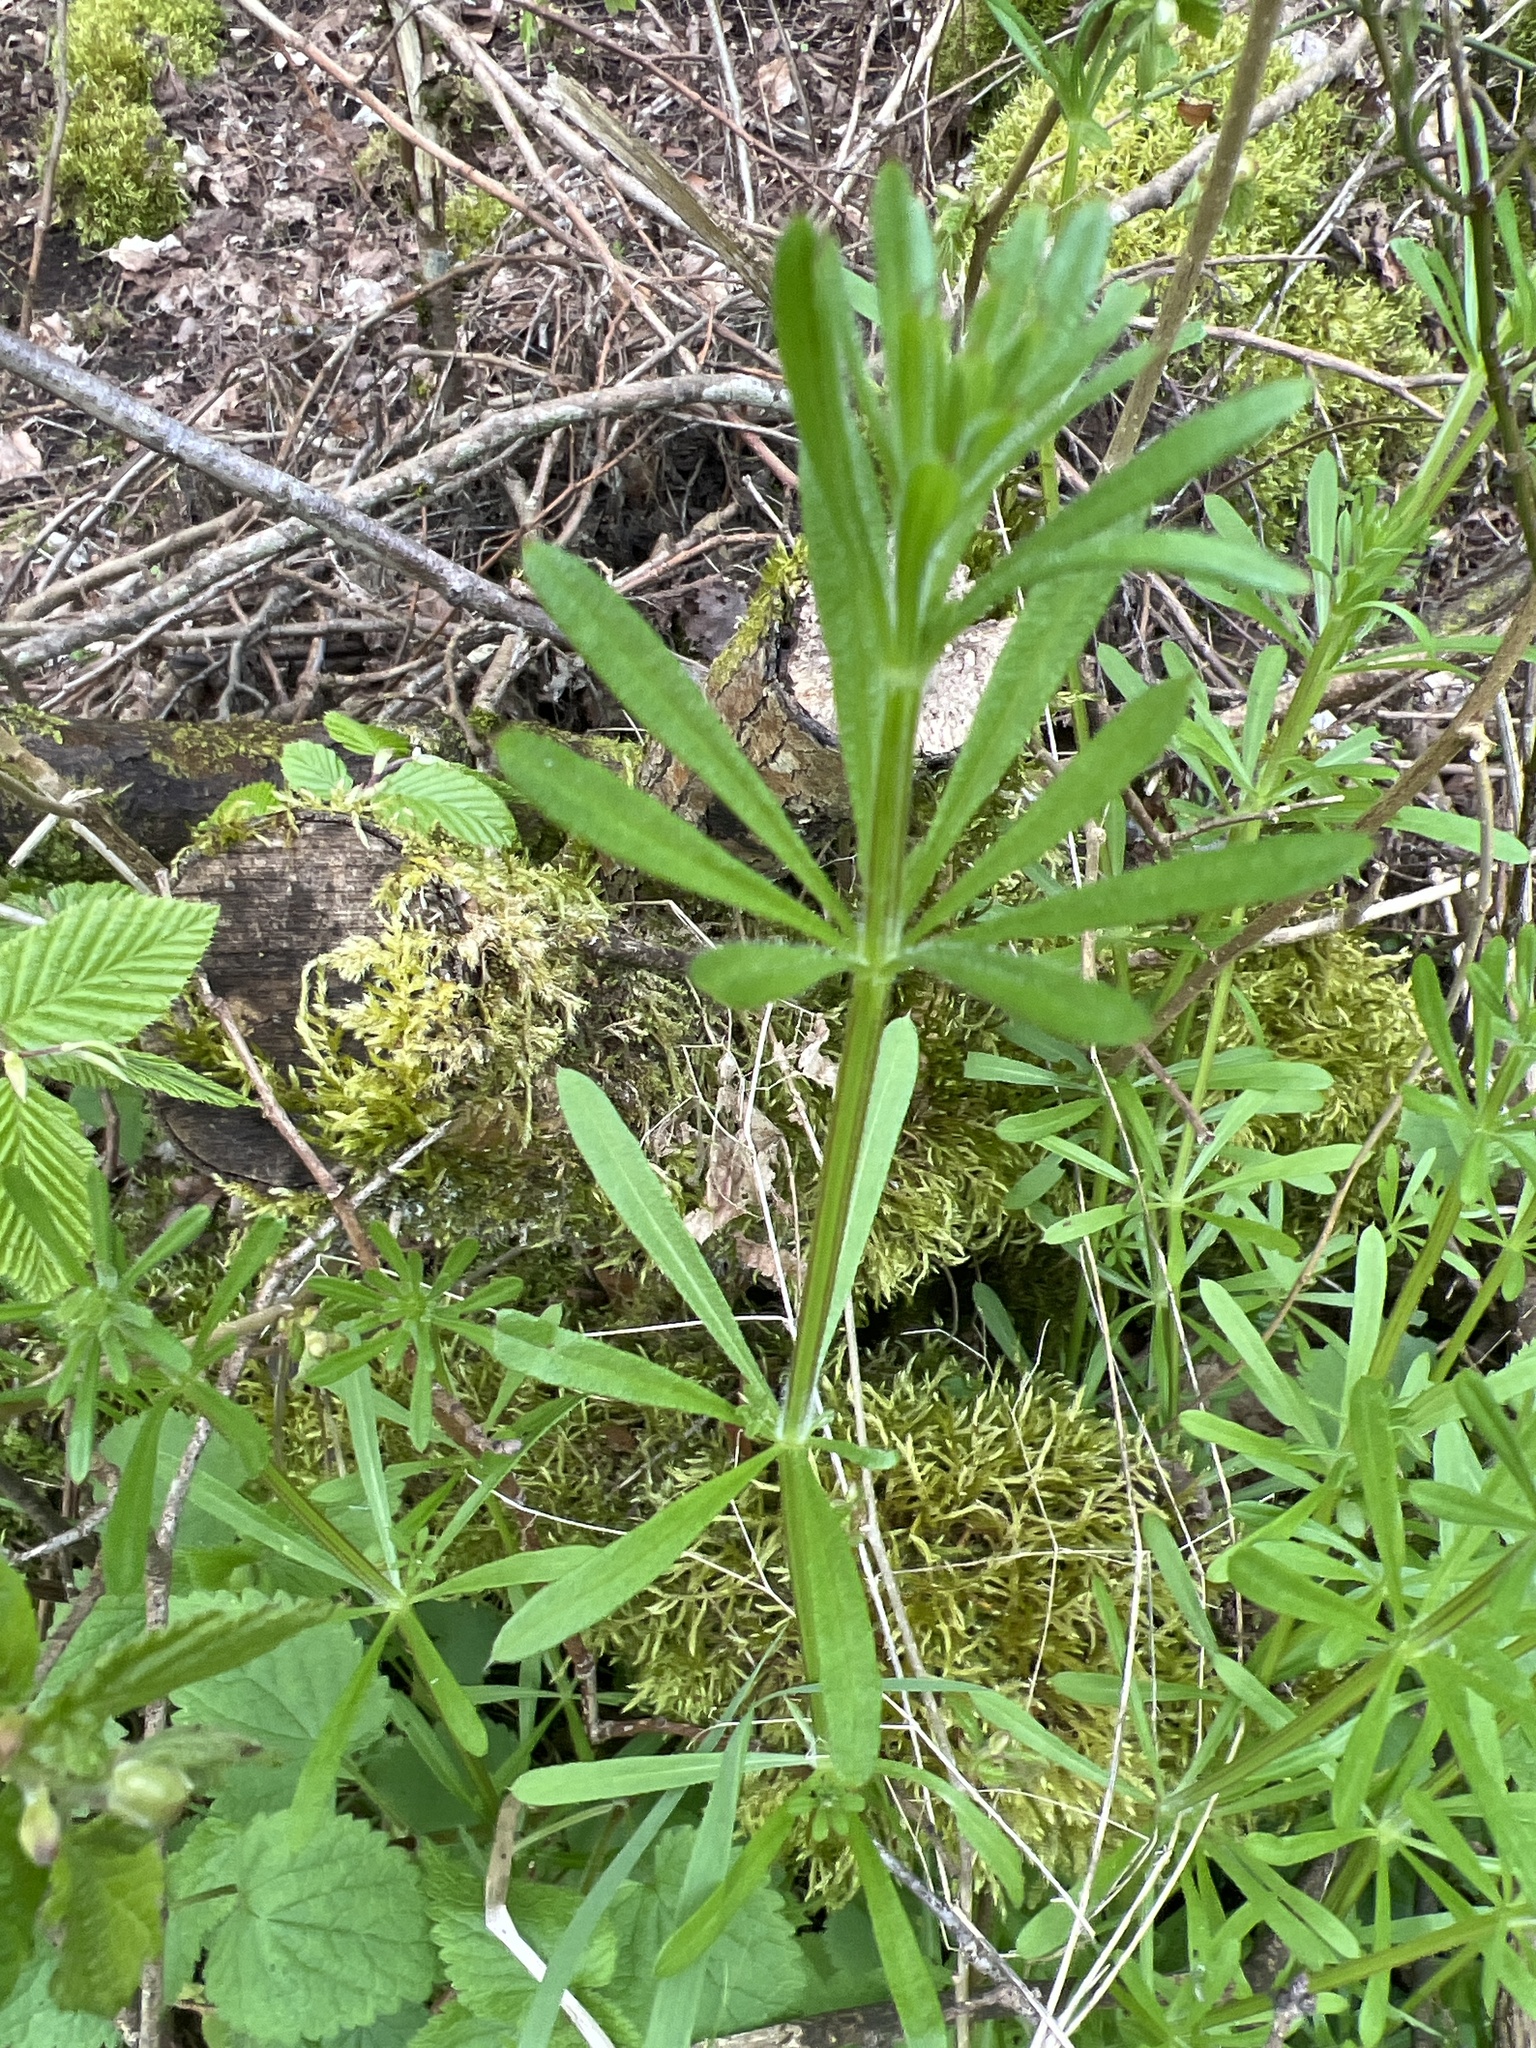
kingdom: Plantae
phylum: Tracheophyta
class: Magnoliopsida
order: Gentianales
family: Rubiaceae
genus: Galium
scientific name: Galium aparine
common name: Cleavers
